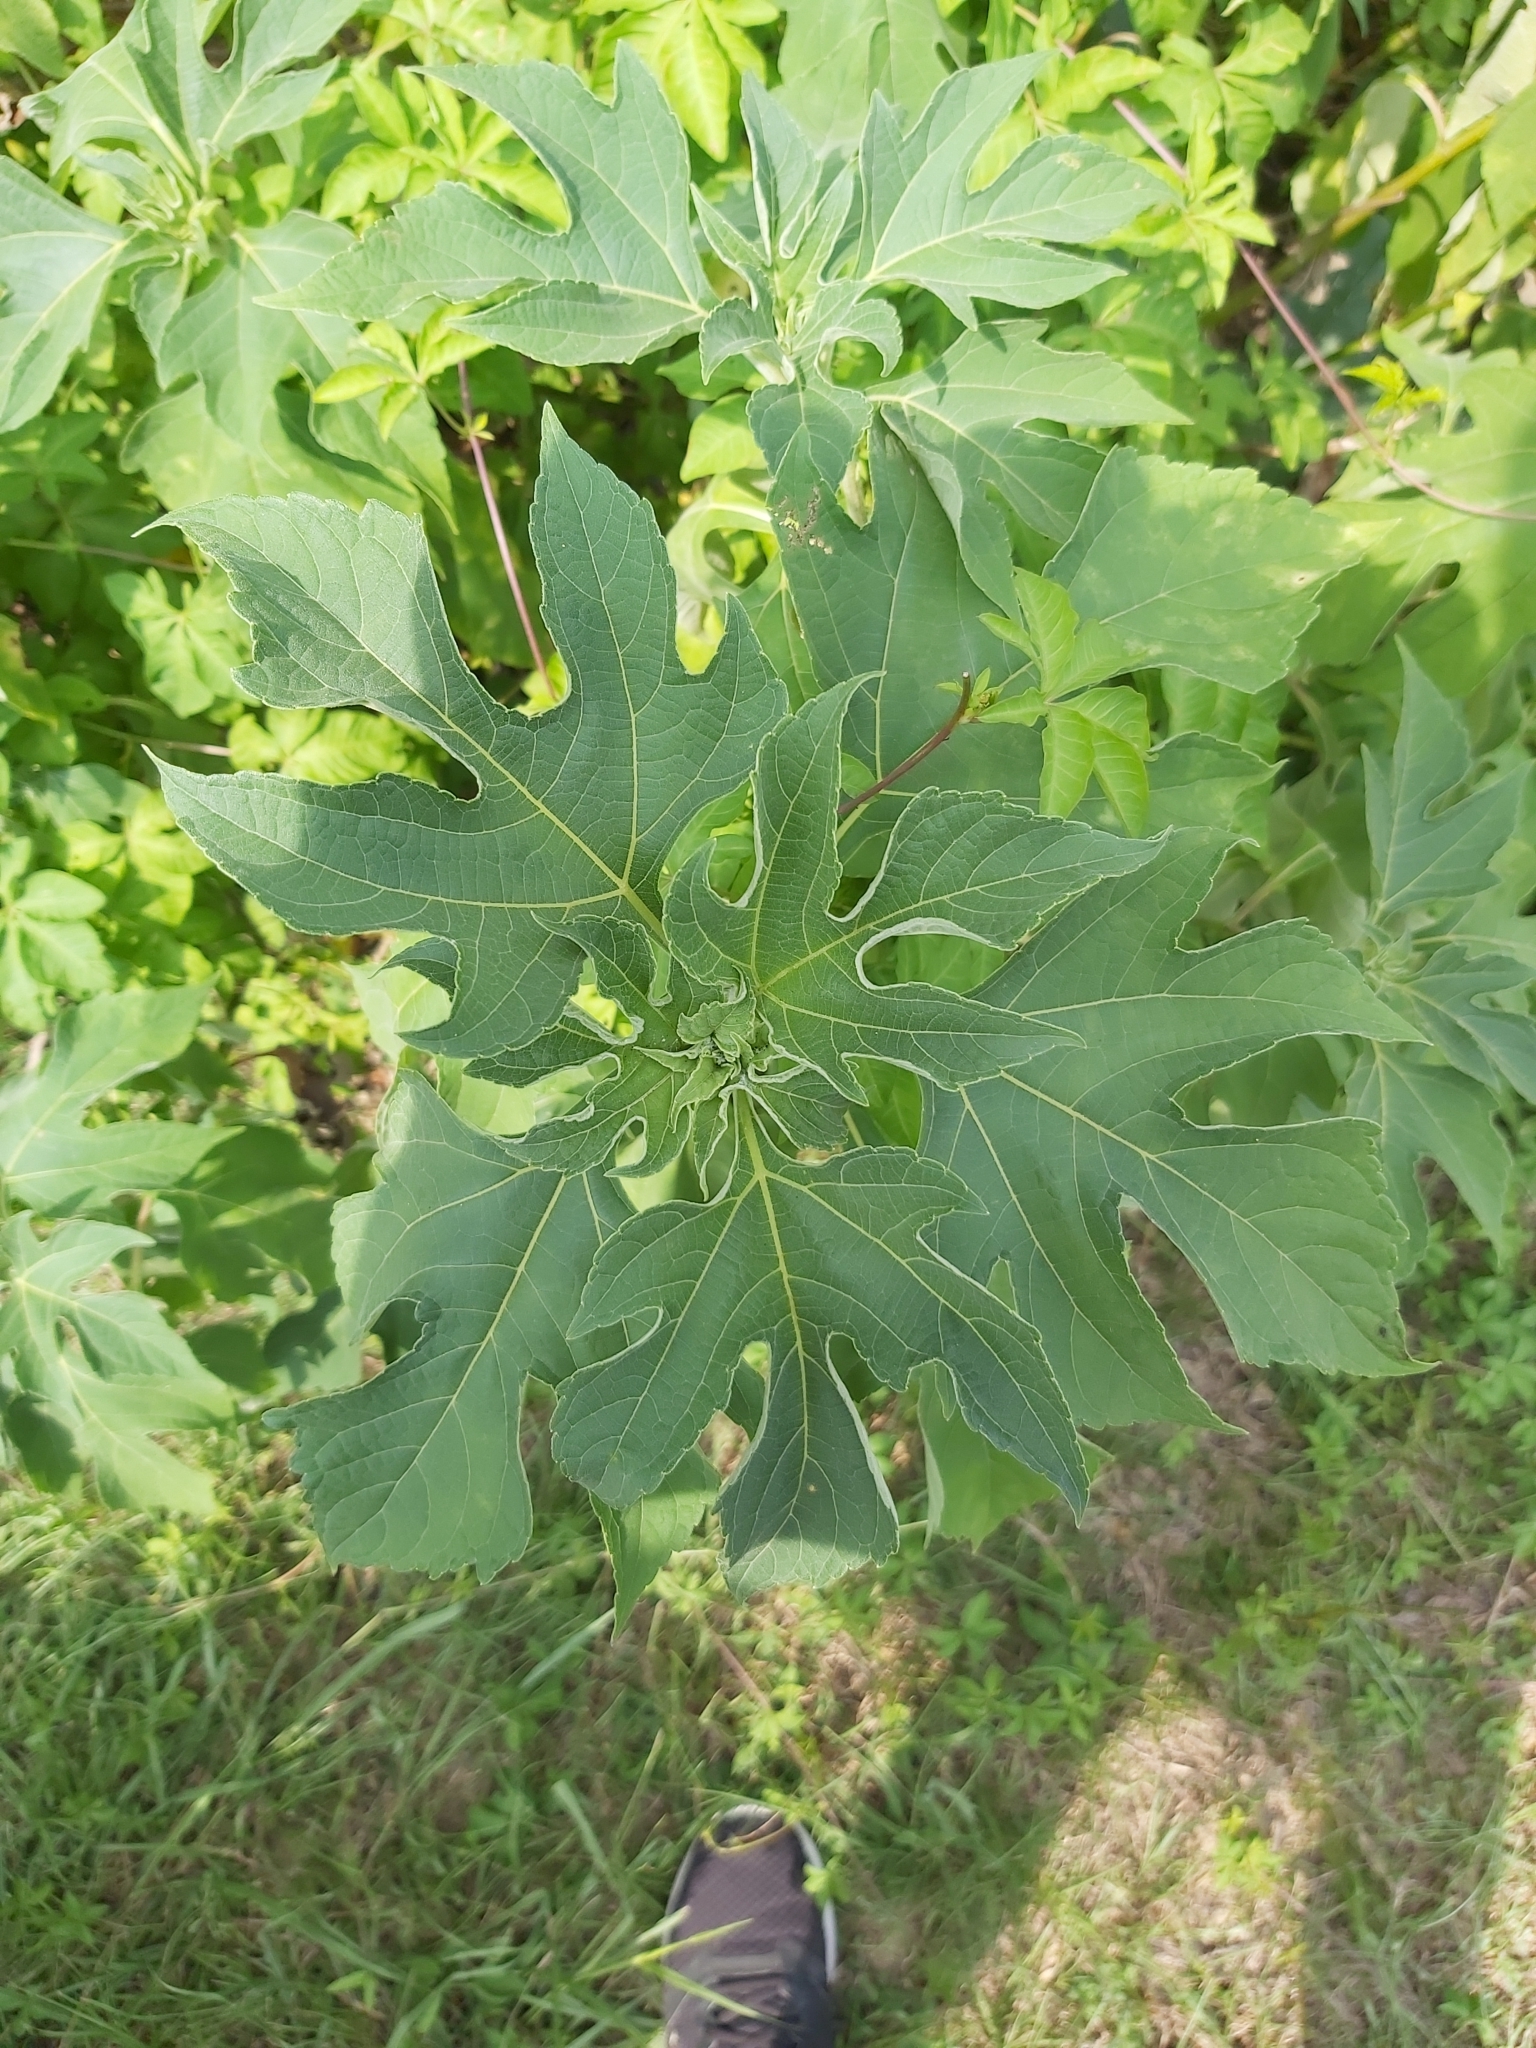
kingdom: Plantae
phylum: Tracheophyta
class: Magnoliopsida
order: Asterales
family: Asteraceae
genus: Tithonia
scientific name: Tithonia diversifolia
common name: Tree marigold
